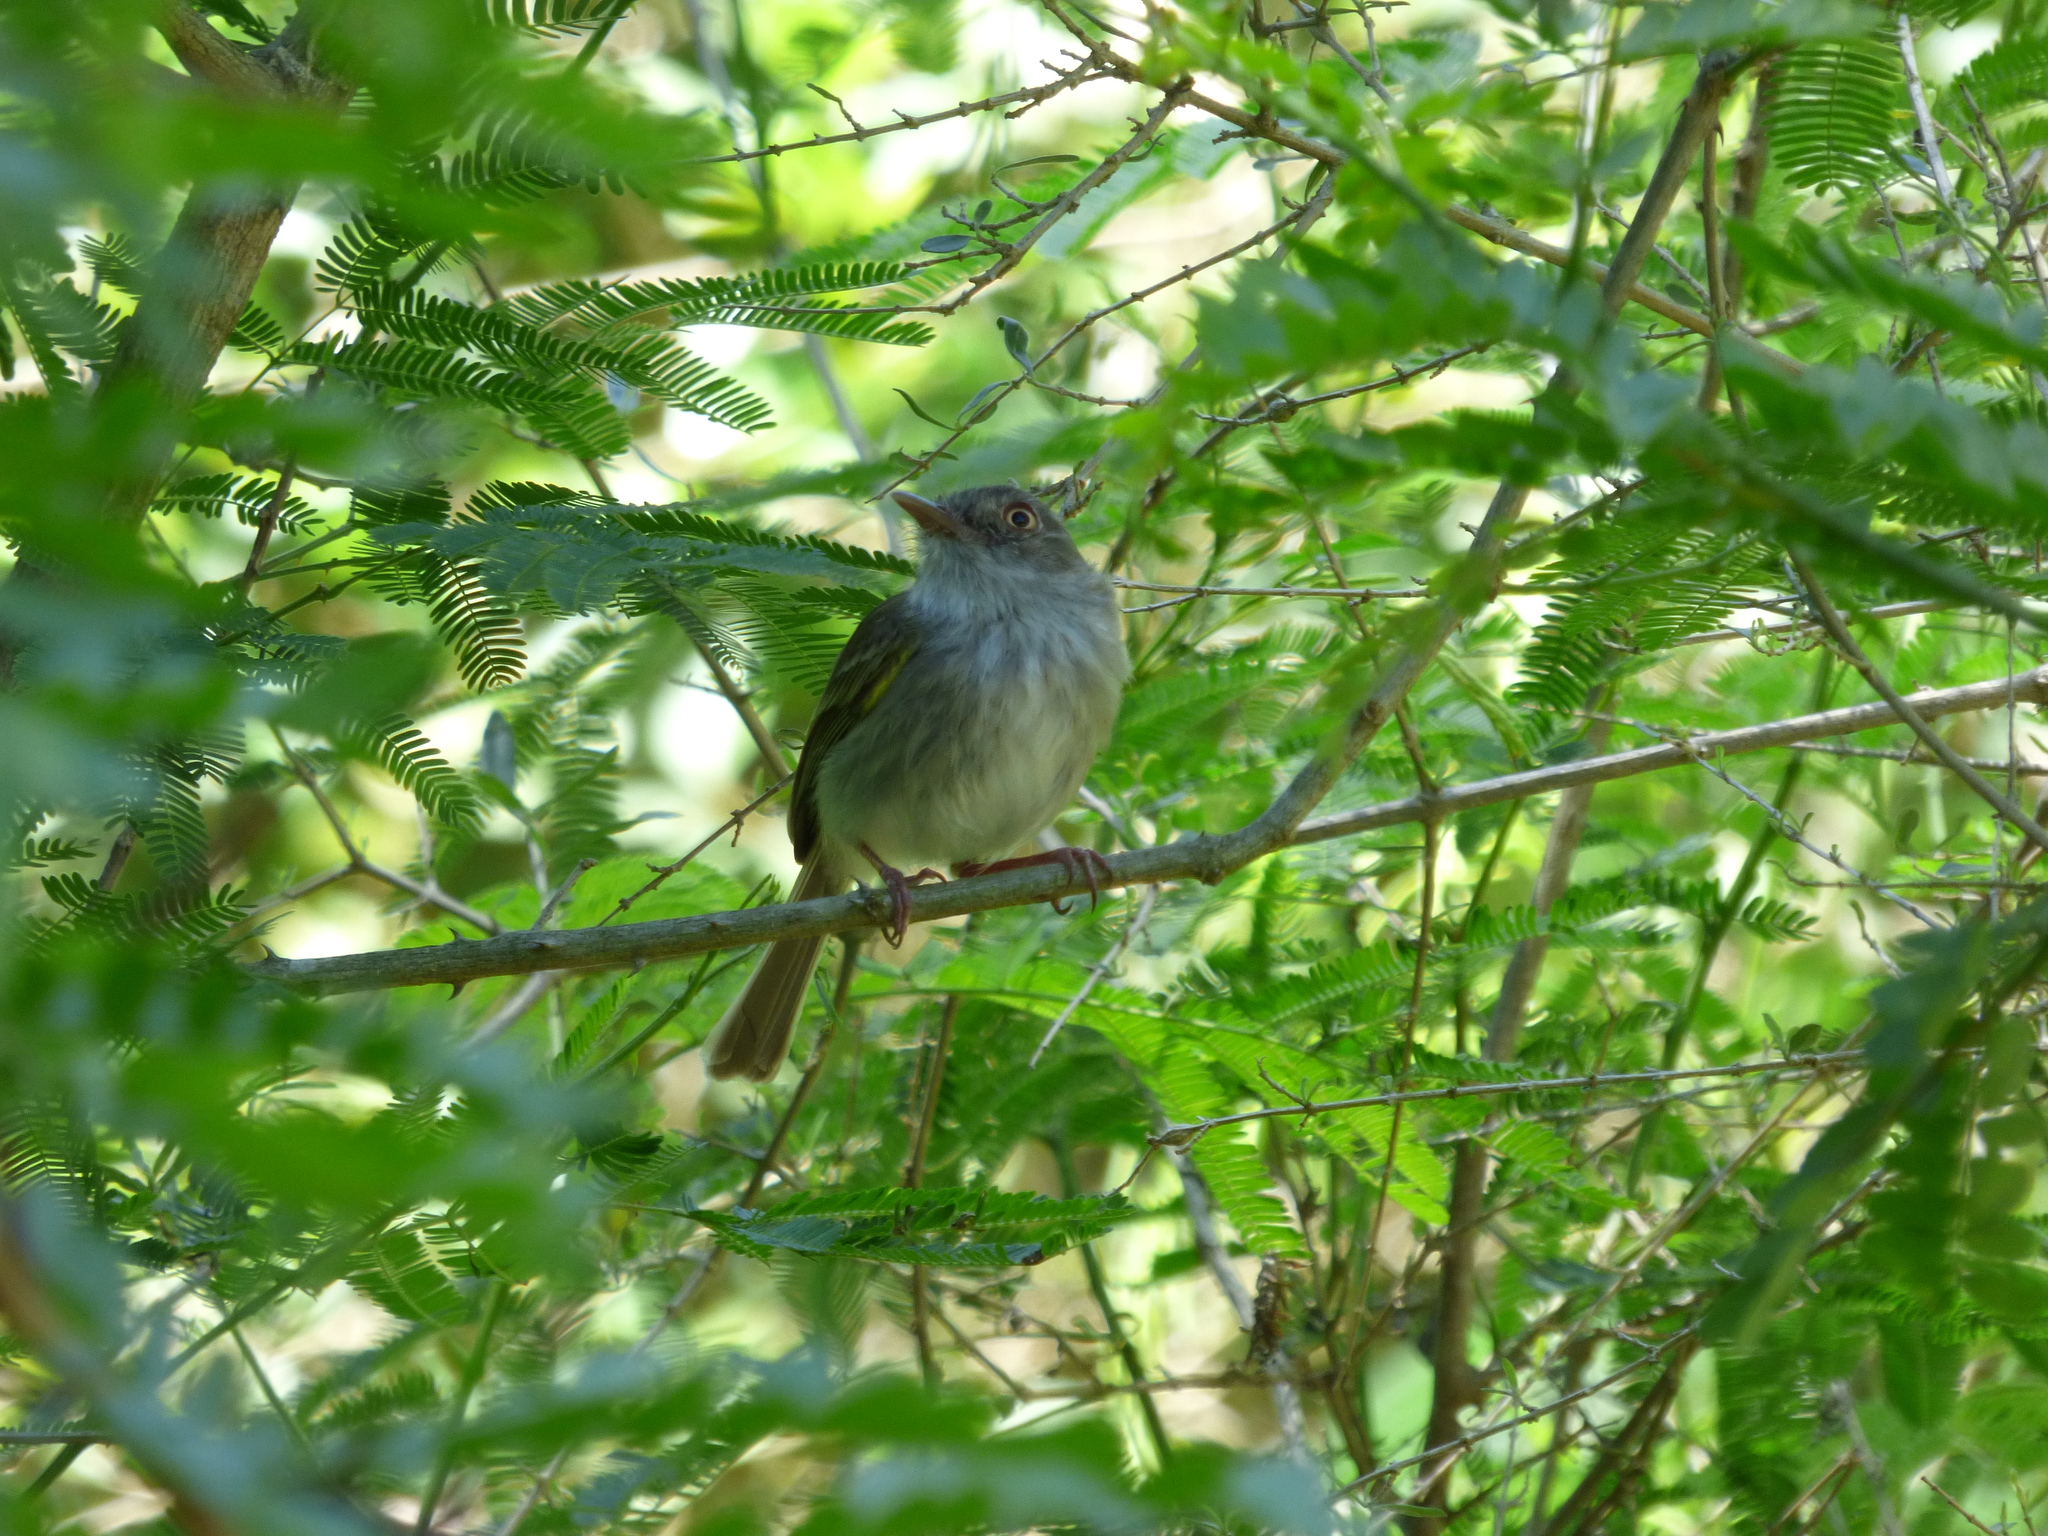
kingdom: Animalia
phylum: Chordata
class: Aves
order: Passeriformes
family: Tyrannidae
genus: Hemitriccus
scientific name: Hemitriccus margaritaceiventer
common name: Pearly-vented tody-tyrant
